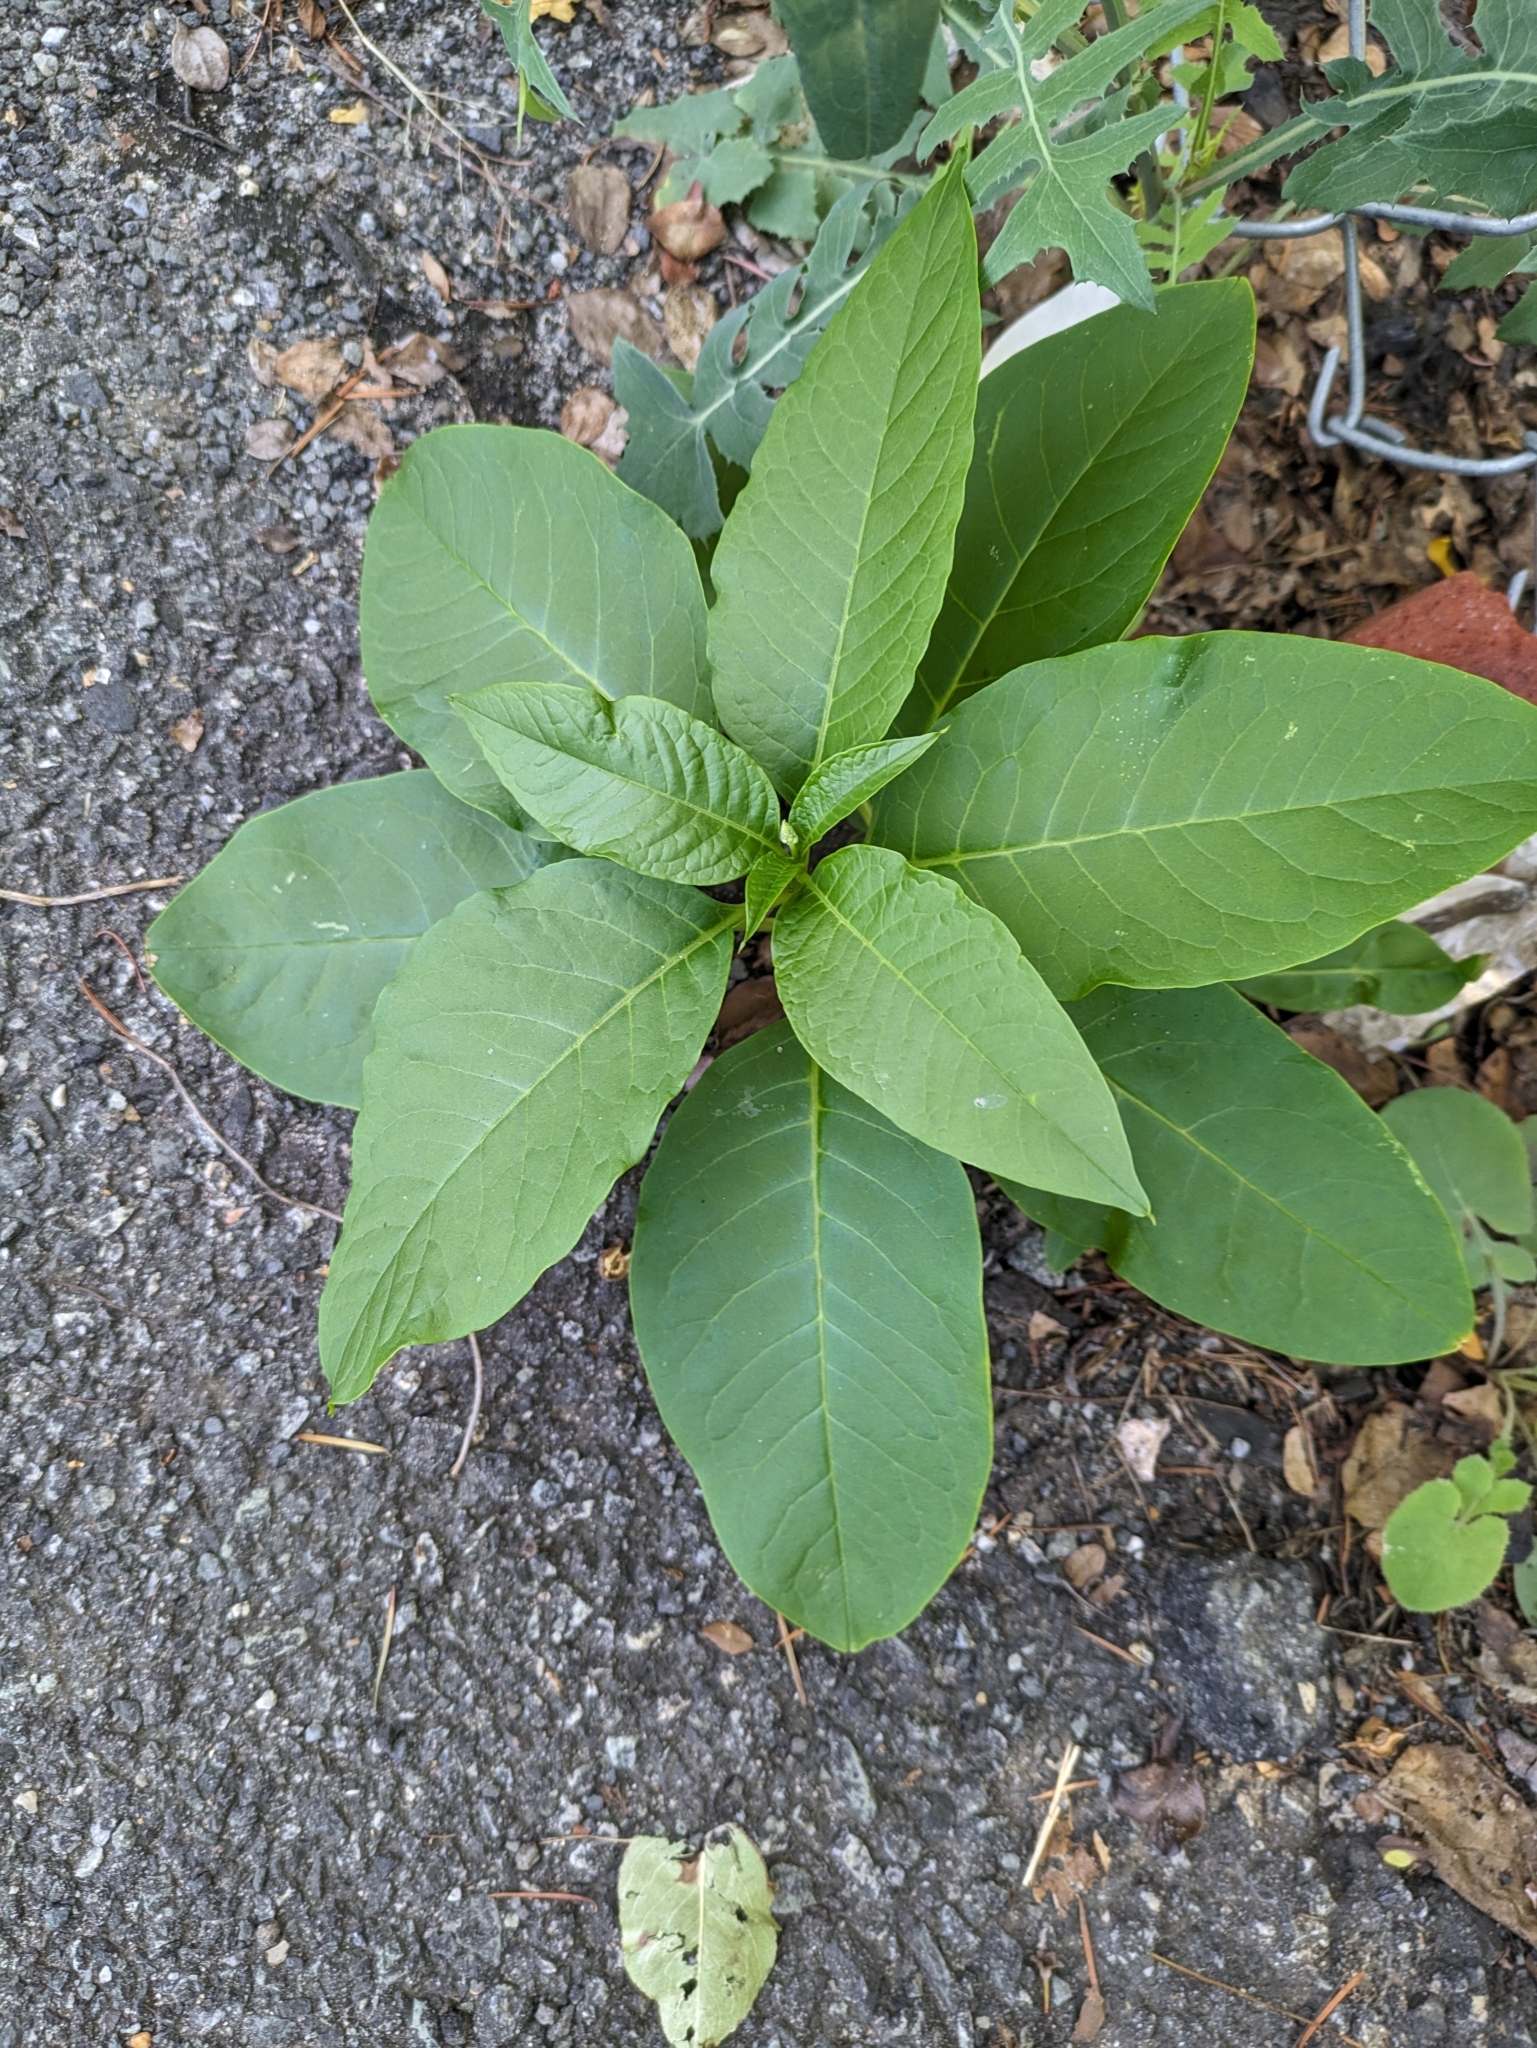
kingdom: Plantae
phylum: Tracheophyta
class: Magnoliopsida
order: Caryophyllales
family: Phytolaccaceae
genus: Phytolacca
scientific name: Phytolacca americana
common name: American pokeweed
